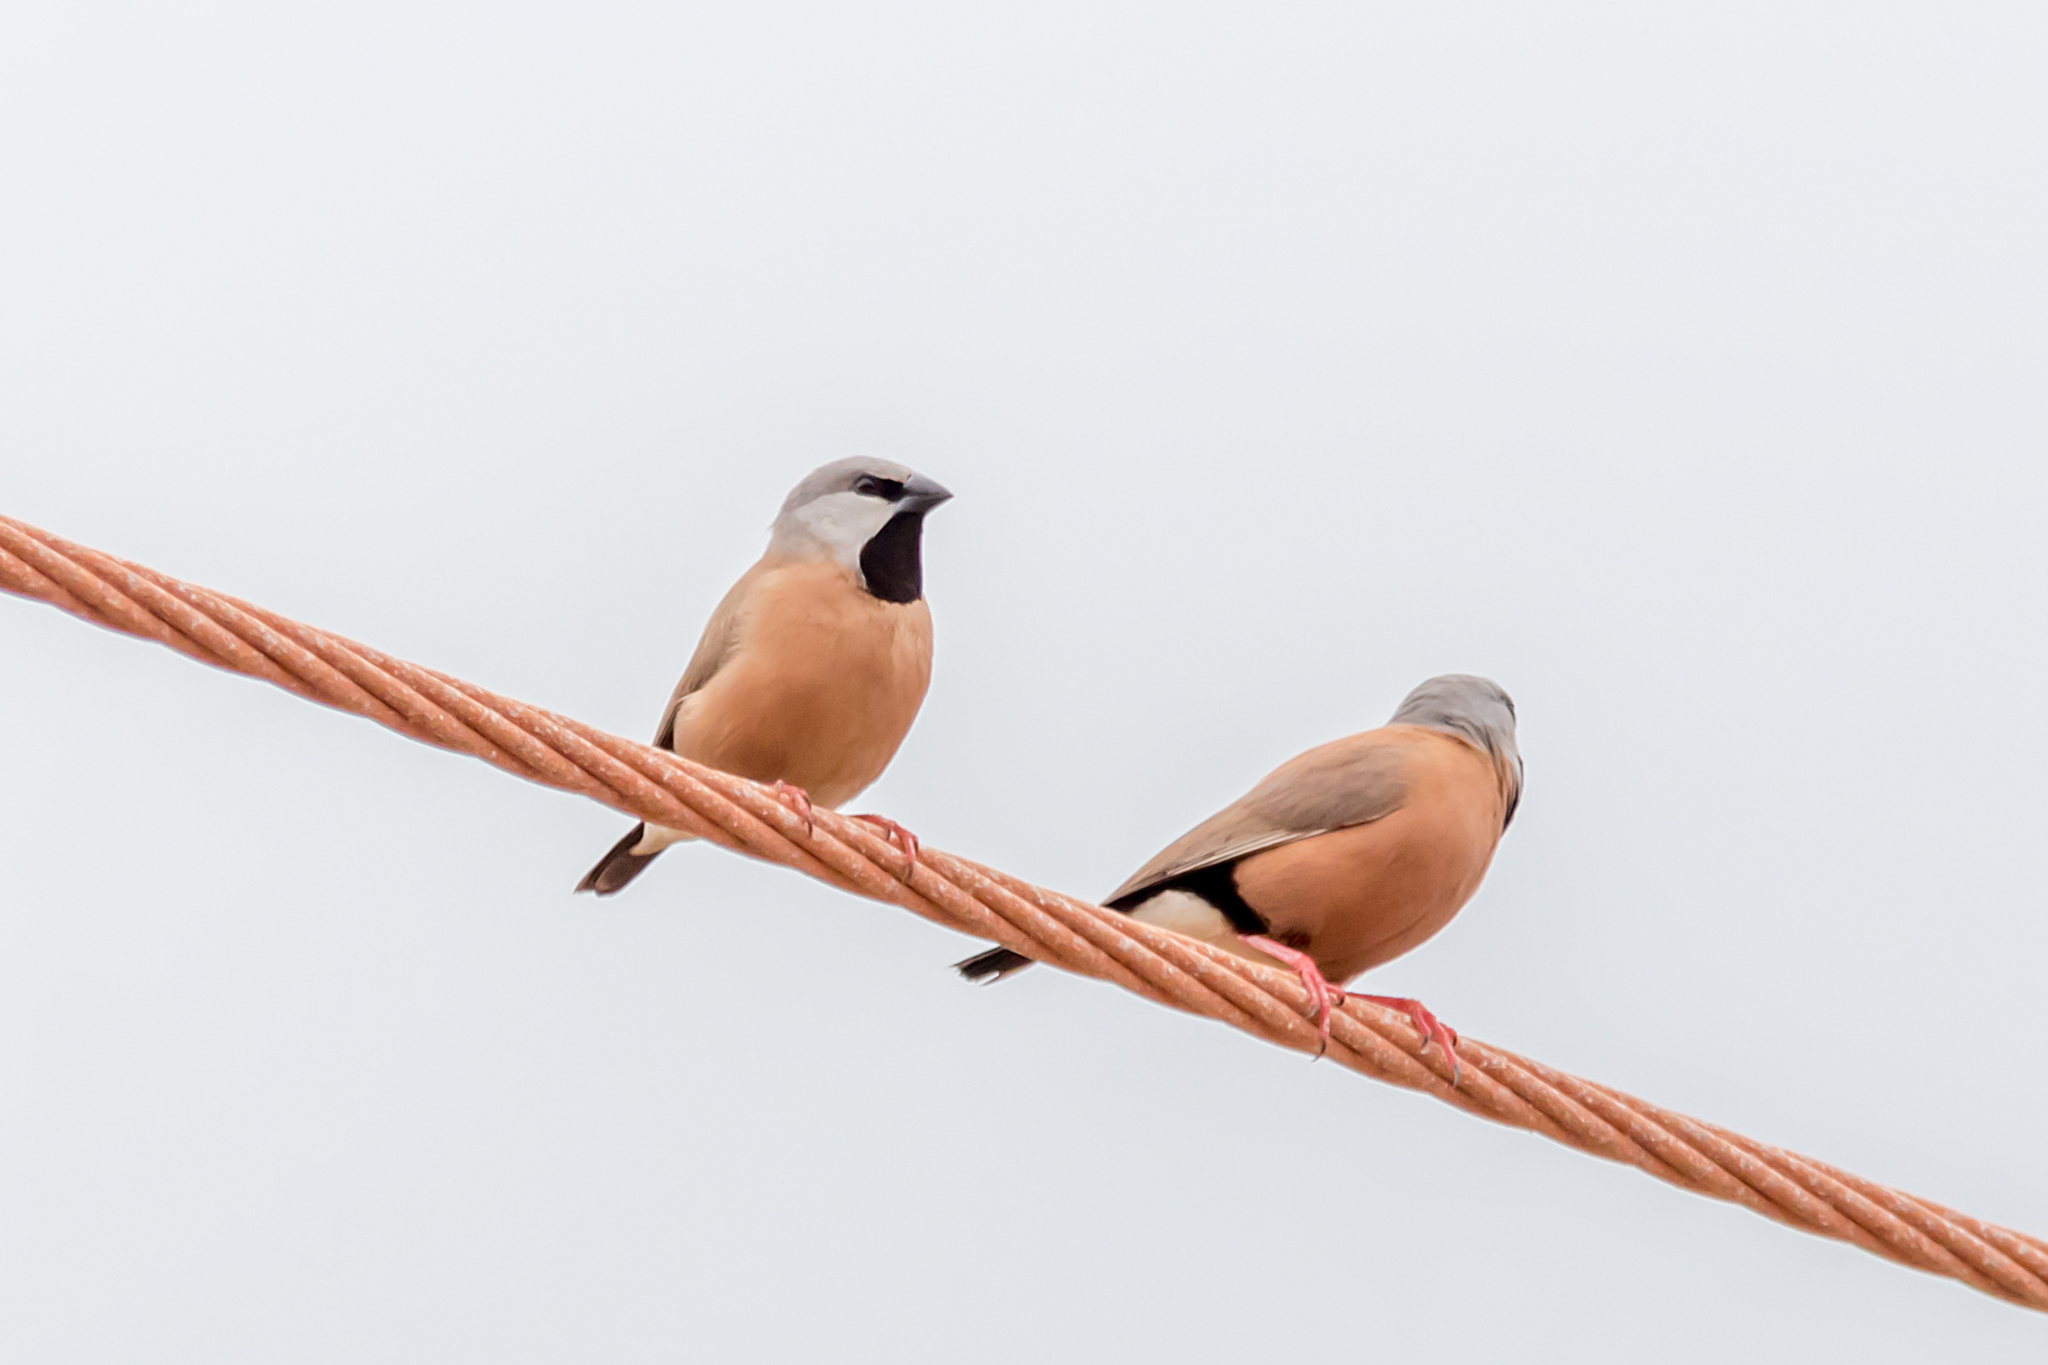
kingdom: Animalia
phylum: Chordata
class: Aves
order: Passeriformes
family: Estrildidae
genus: Poephila
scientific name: Poephila cincta
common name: Black-throated finch
